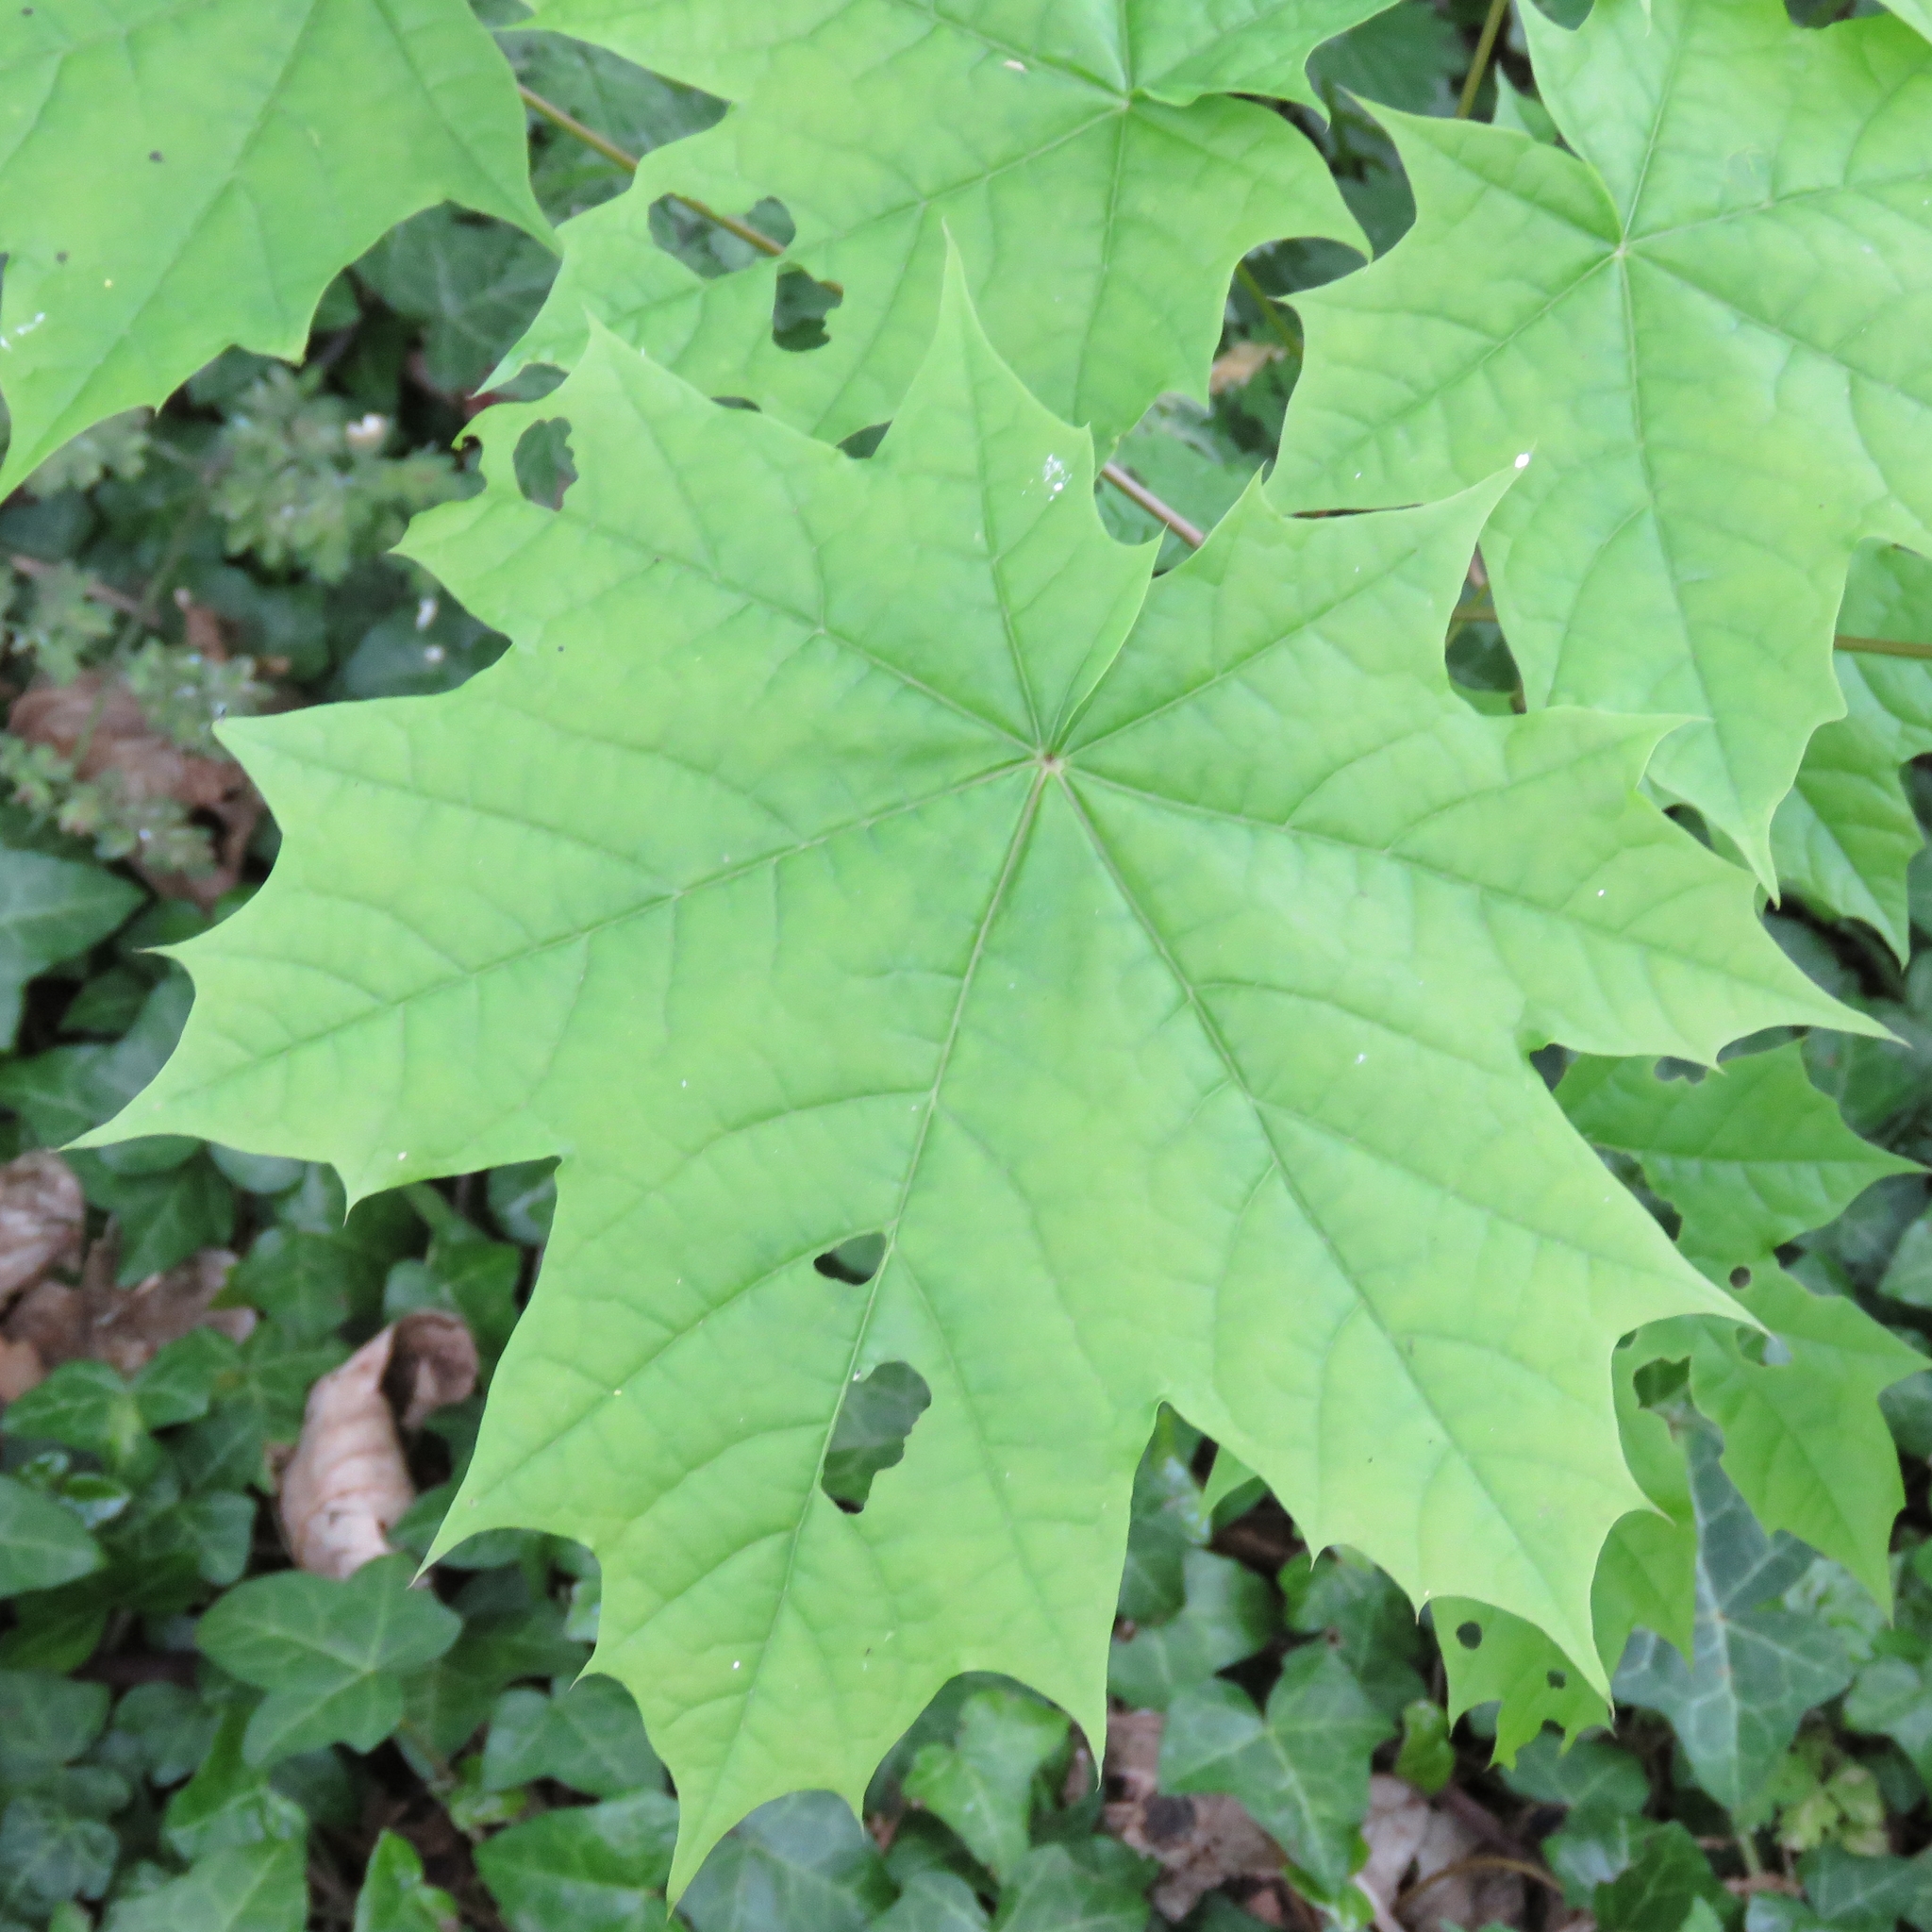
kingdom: Plantae
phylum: Tracheophyta
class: Magnoliopsida
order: Sapindales
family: Sapindaceae
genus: Acer
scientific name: Acer platanoides
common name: Norway maple
